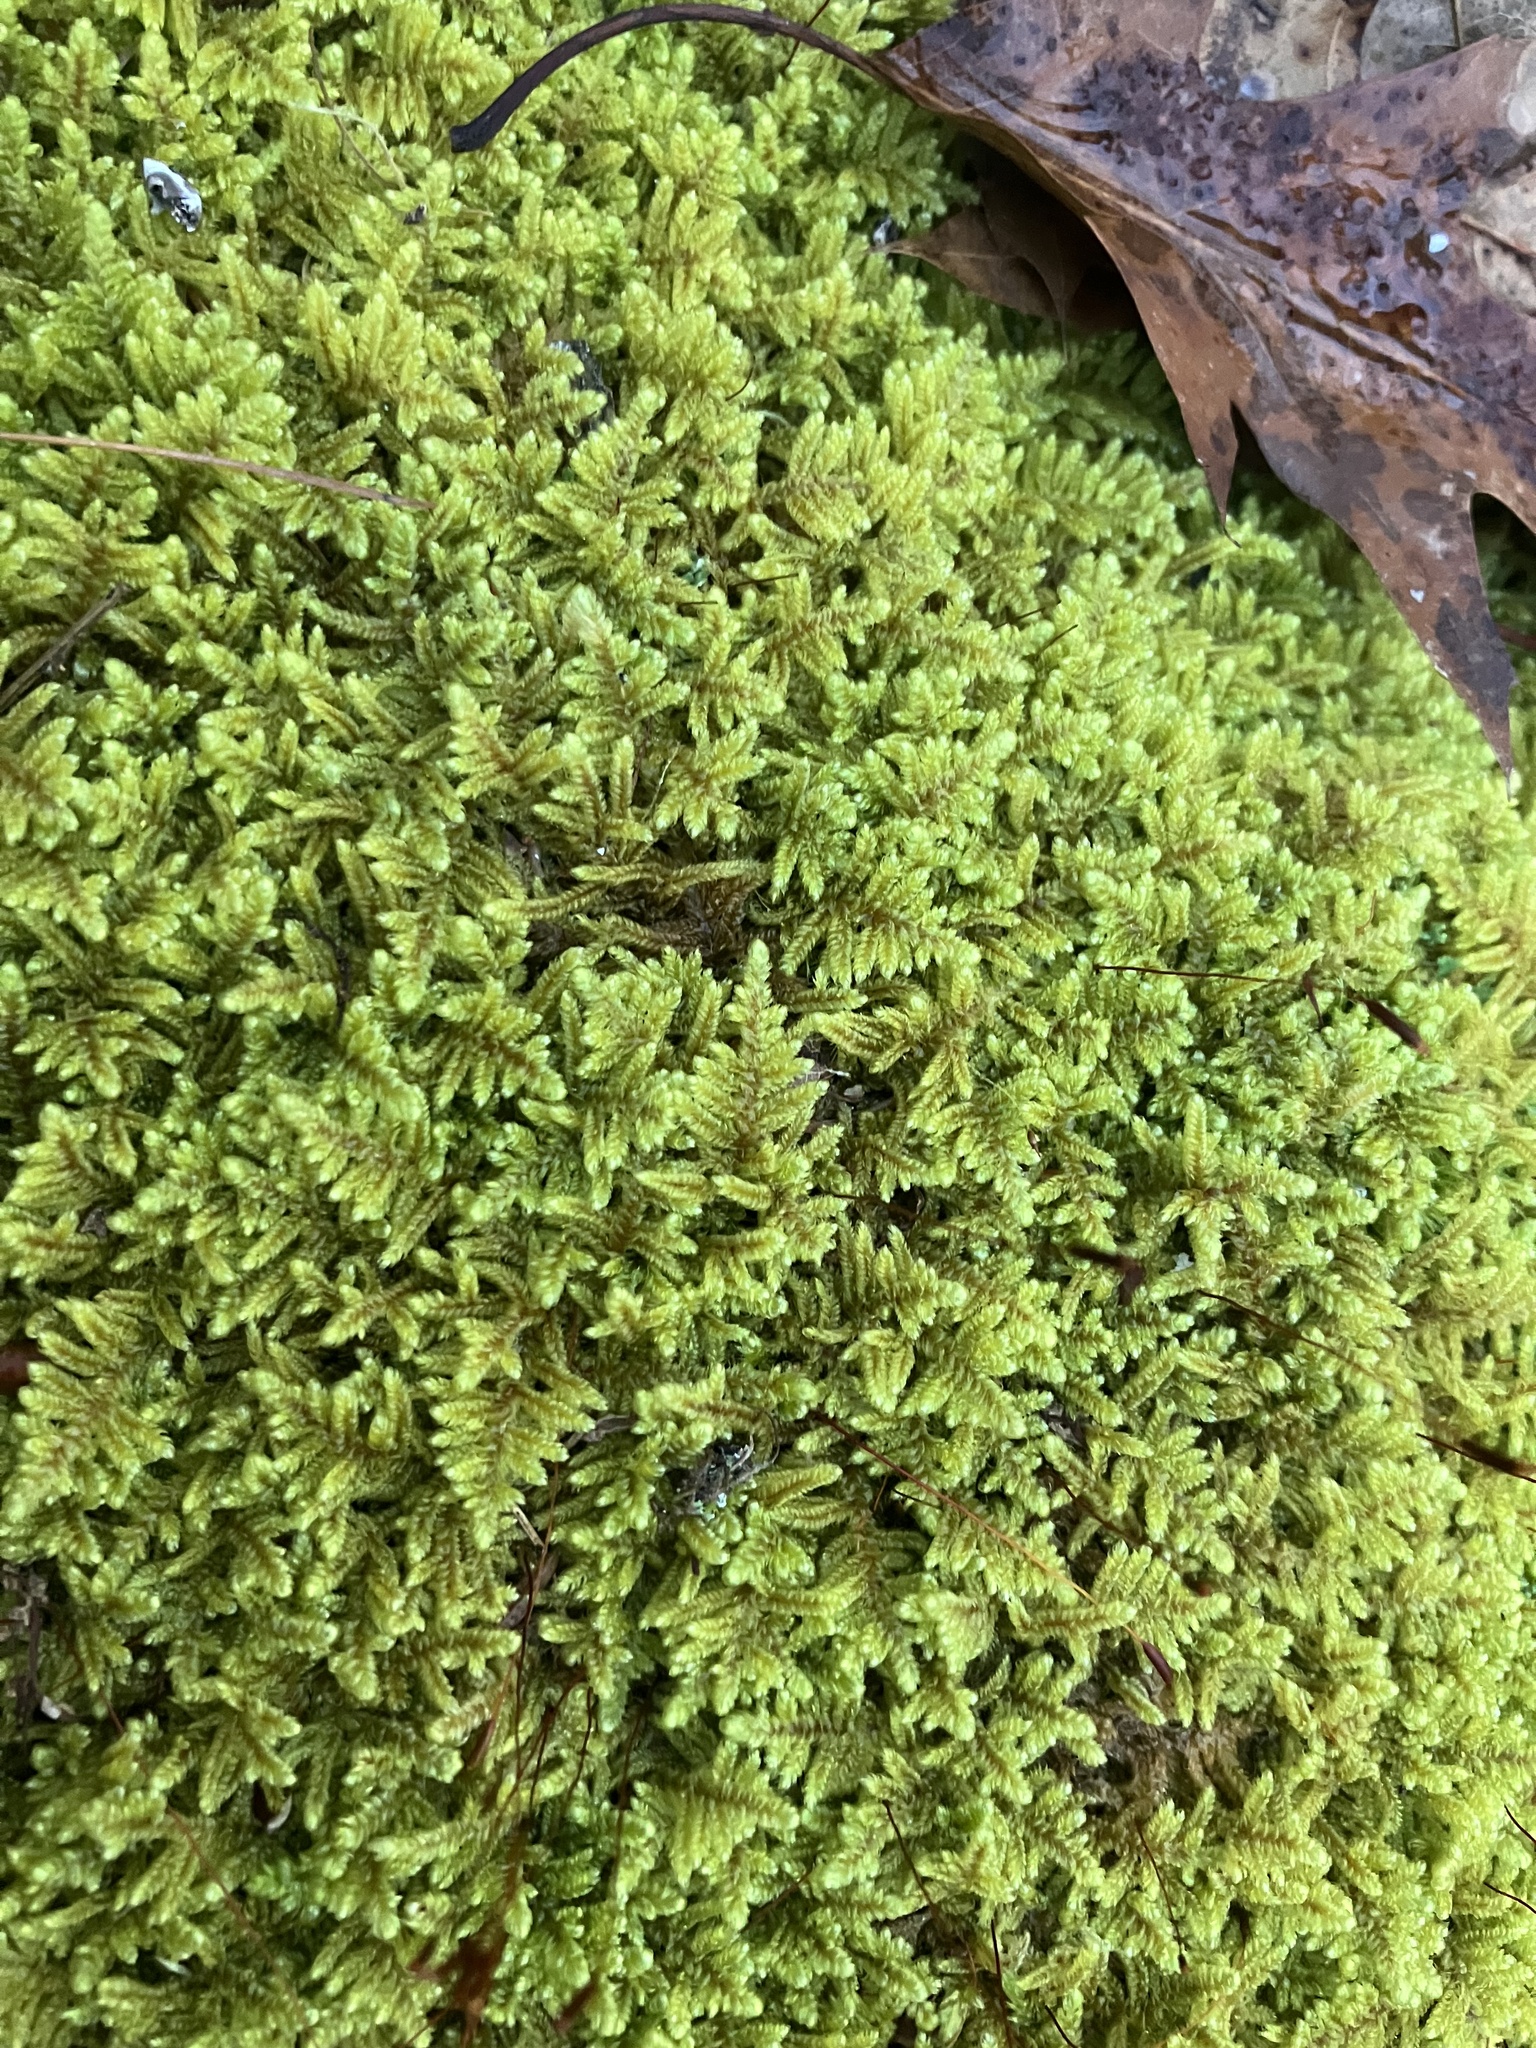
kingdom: Plantae
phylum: Bryophyta
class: Bryopsida
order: Hypnales
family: Callicladiaceae
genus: Callicladium
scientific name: Callicladium imponens
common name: Brocade moss
